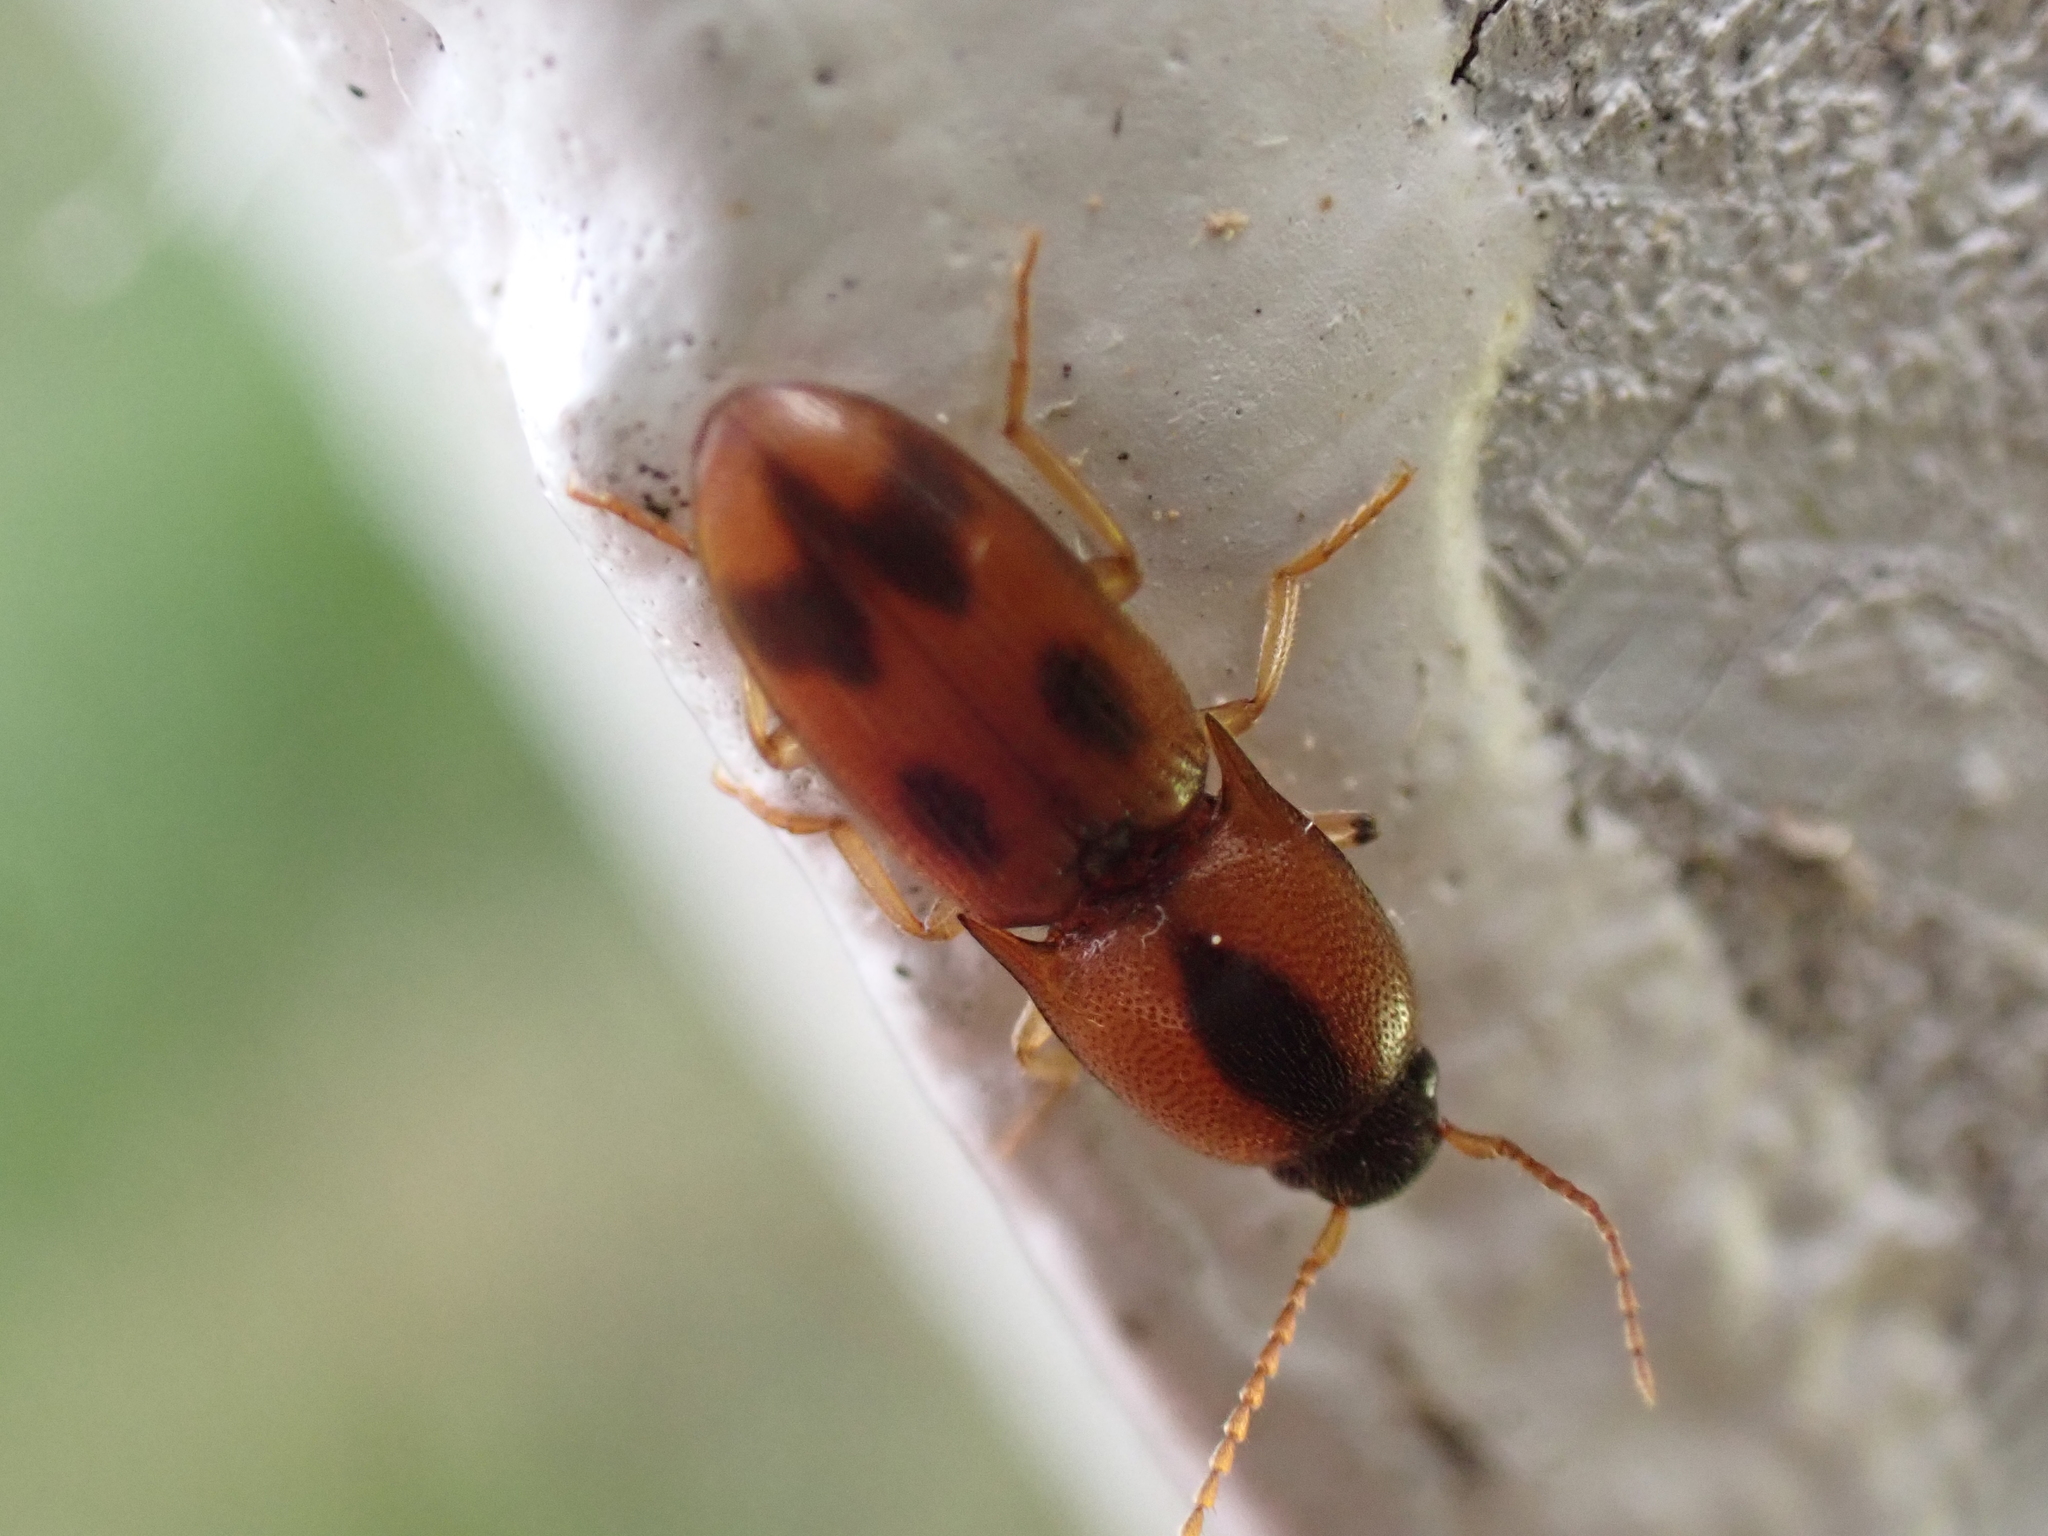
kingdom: Animalia
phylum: Arthropoda
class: Insecta
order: Coleoptera
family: Elateridae
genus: Aeolus
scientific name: Aeolus mellillus
